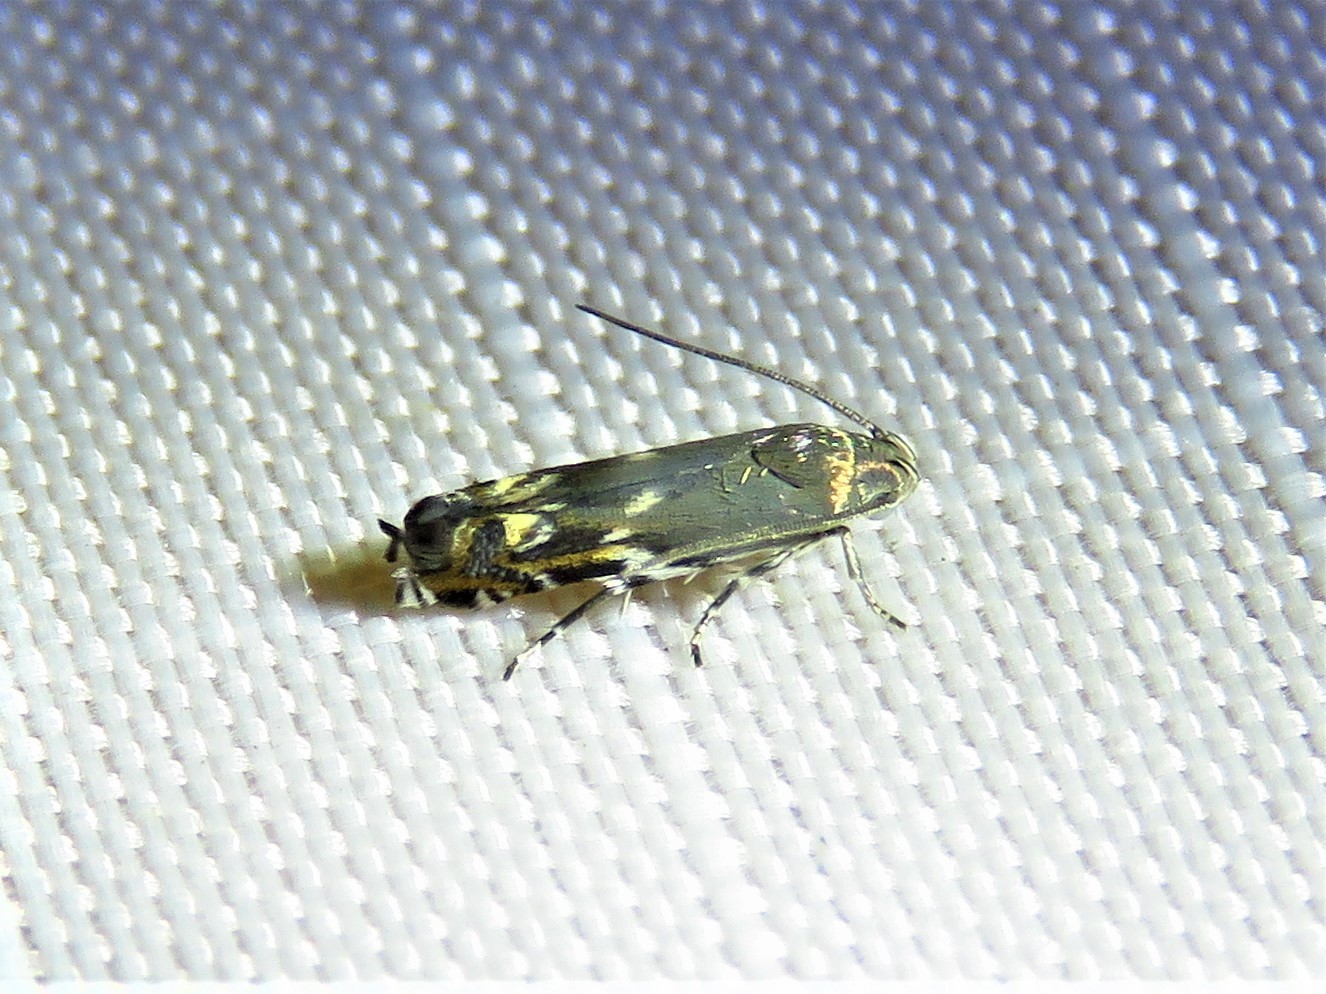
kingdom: Animalia
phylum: Arthropoda
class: Insecta
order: Lepidoptera
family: Gelechiidae
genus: Calliprora
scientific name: Calliprora sexstrigella
